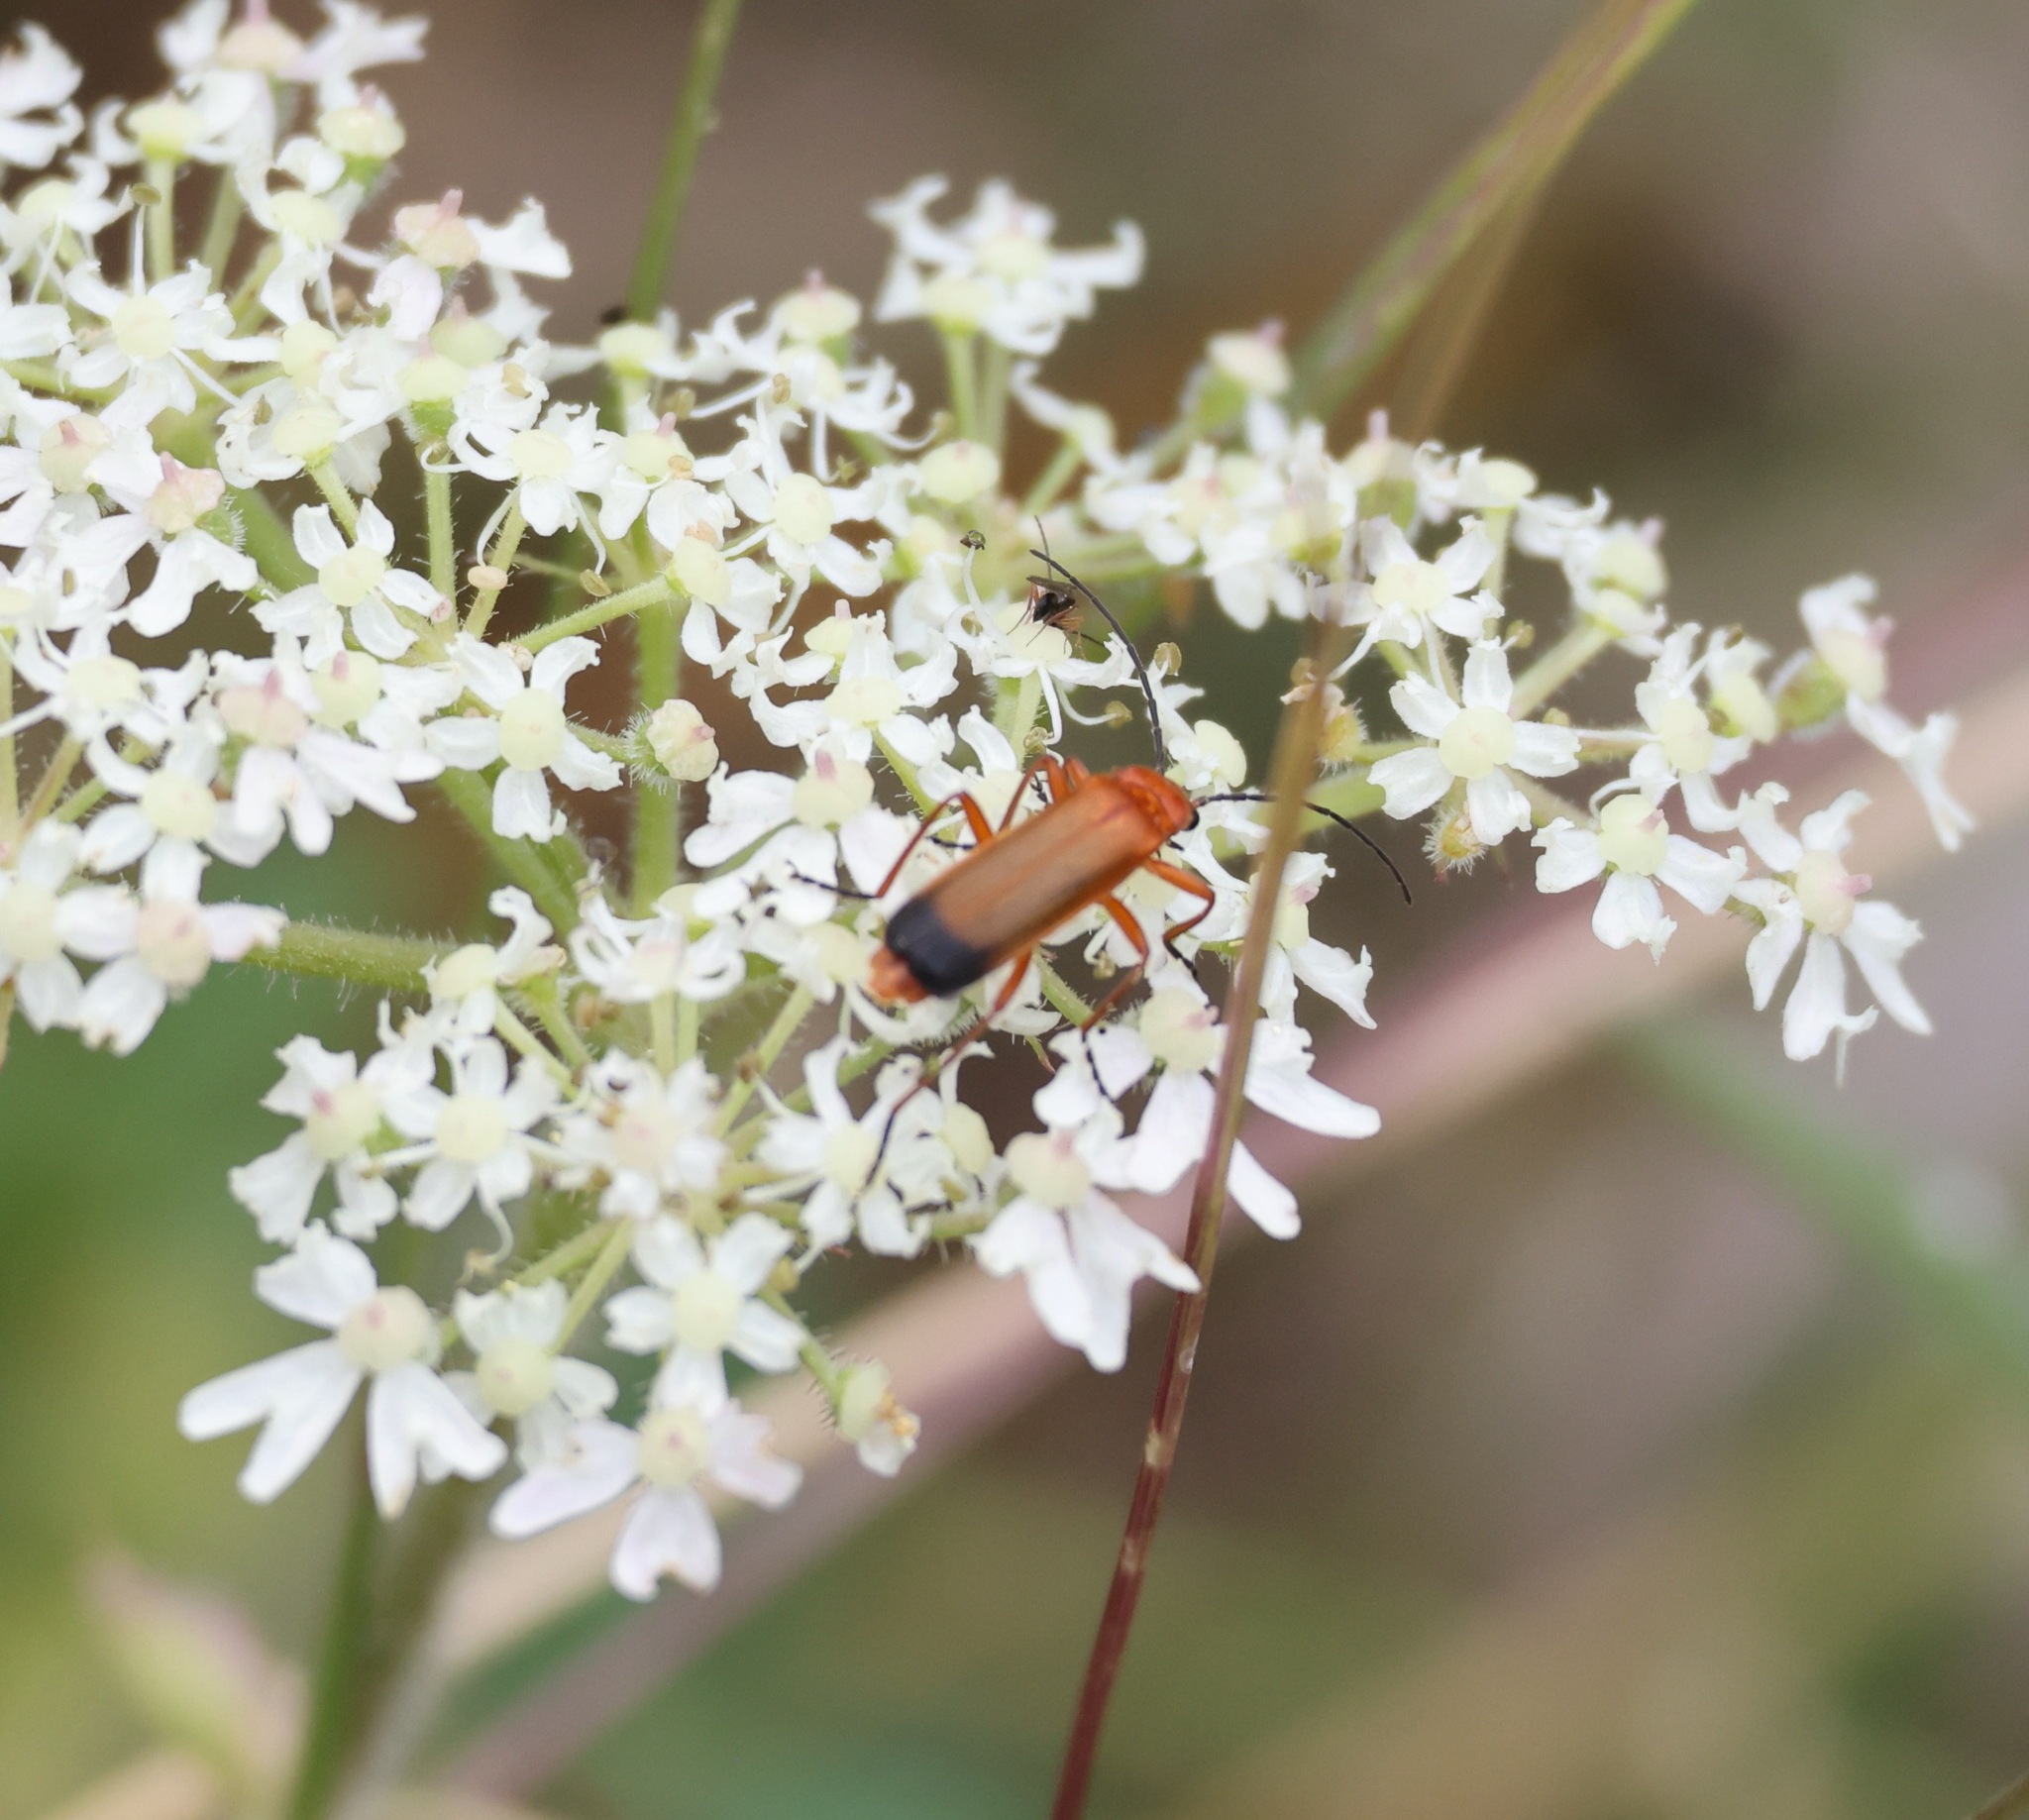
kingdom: Animalia
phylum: Arthropoda
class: Insecta
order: Coleoptera
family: Cantharidae
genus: Rhagonycha
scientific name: Rhagonycha fulva
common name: Common red soldier beetle
